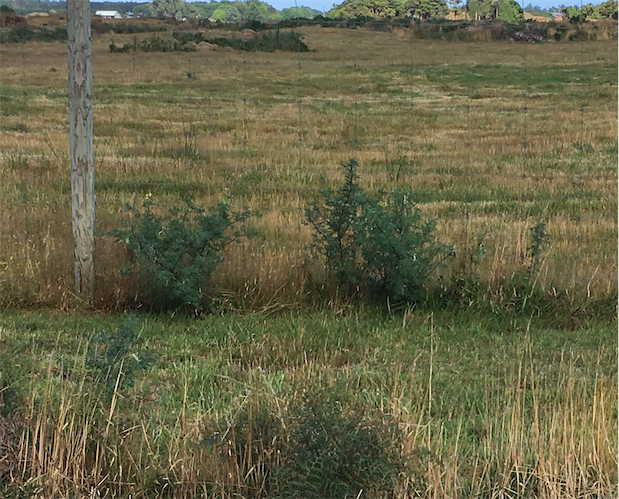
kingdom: Plantae
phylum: Tracheophyta
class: Magnoliopsida
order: Fabales
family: Fabaceae
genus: Lupinus
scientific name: Lupinus arboreus
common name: Yellow bush lupine
